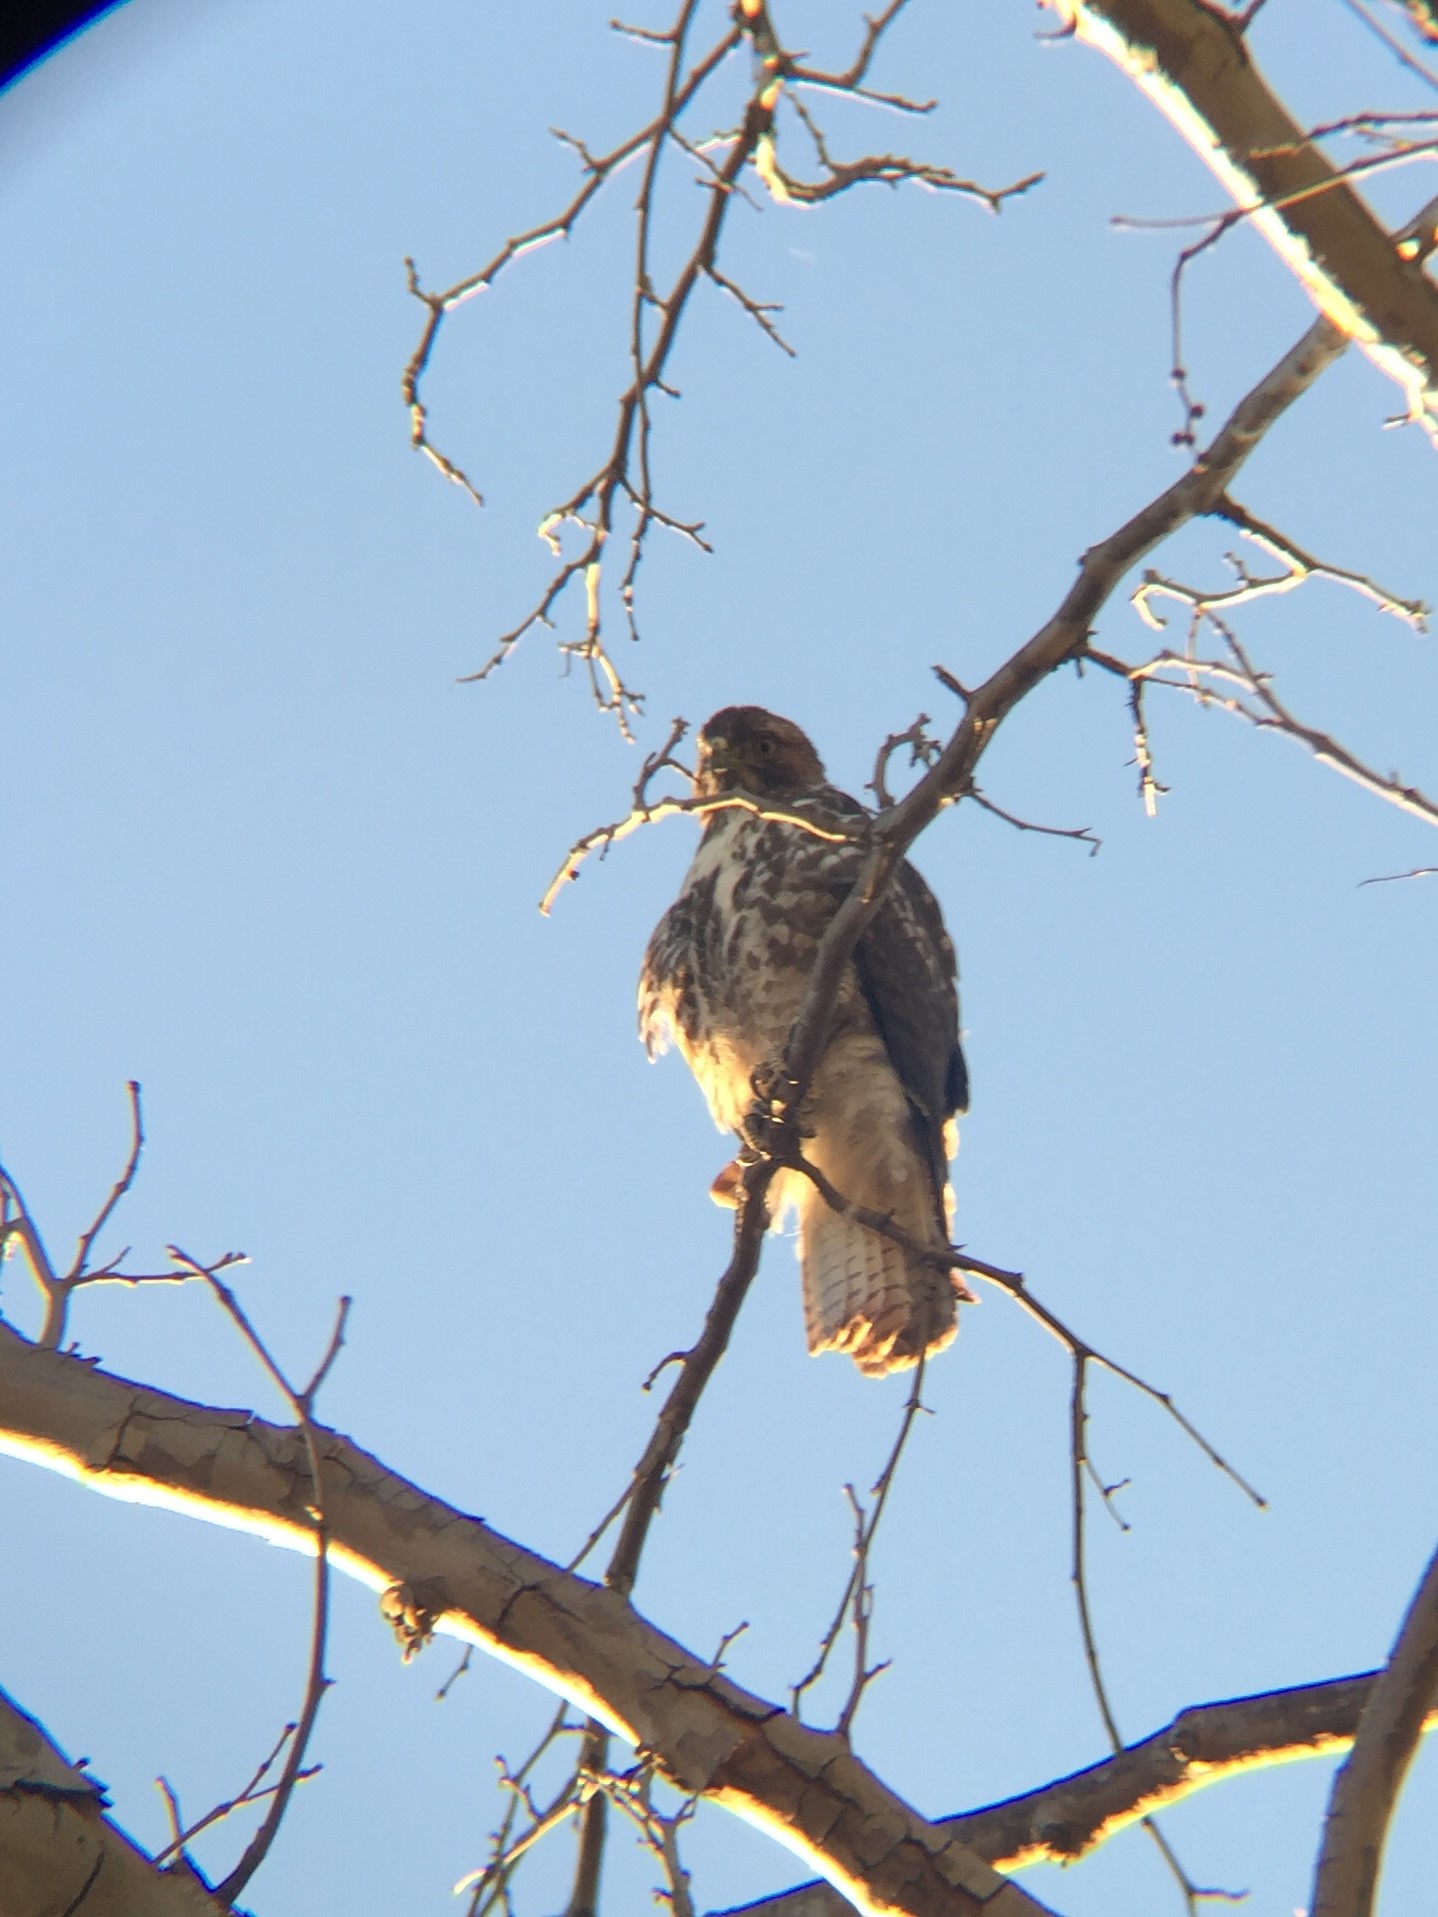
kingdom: Animalia
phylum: Chordata
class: Aves
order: Accipitriformes
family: Accipitridae
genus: Buteo
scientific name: Buteo jamaicensis
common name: Red-tailed hawk
